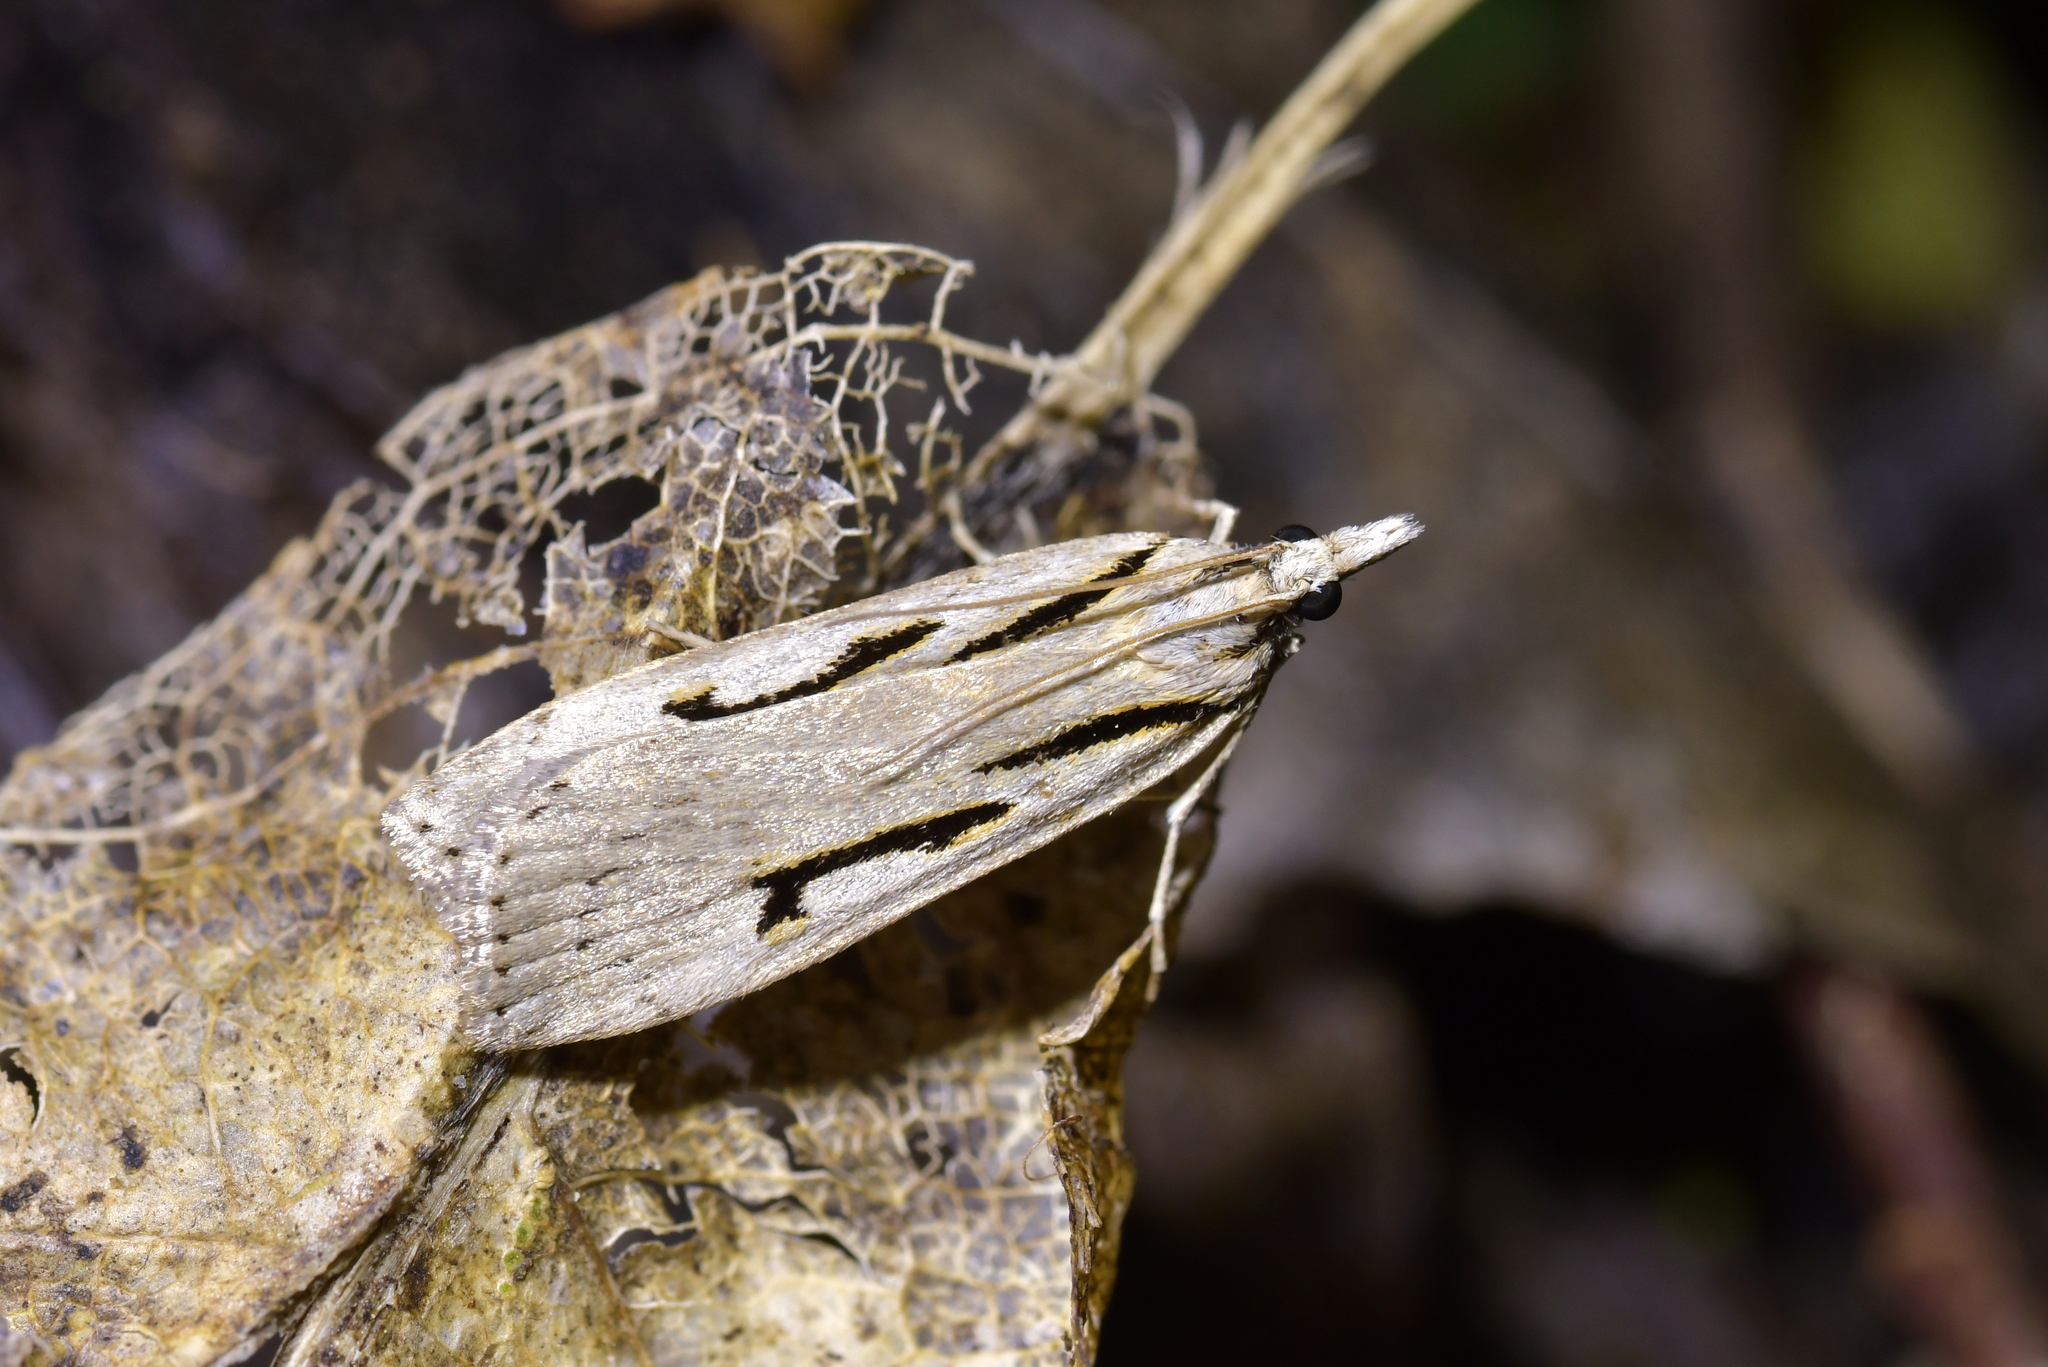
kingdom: Animalia
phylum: Arthropoda
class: Insecta
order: Lepidoptera
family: Crambidae
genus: Scoparia
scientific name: Scoparia rotuellus
